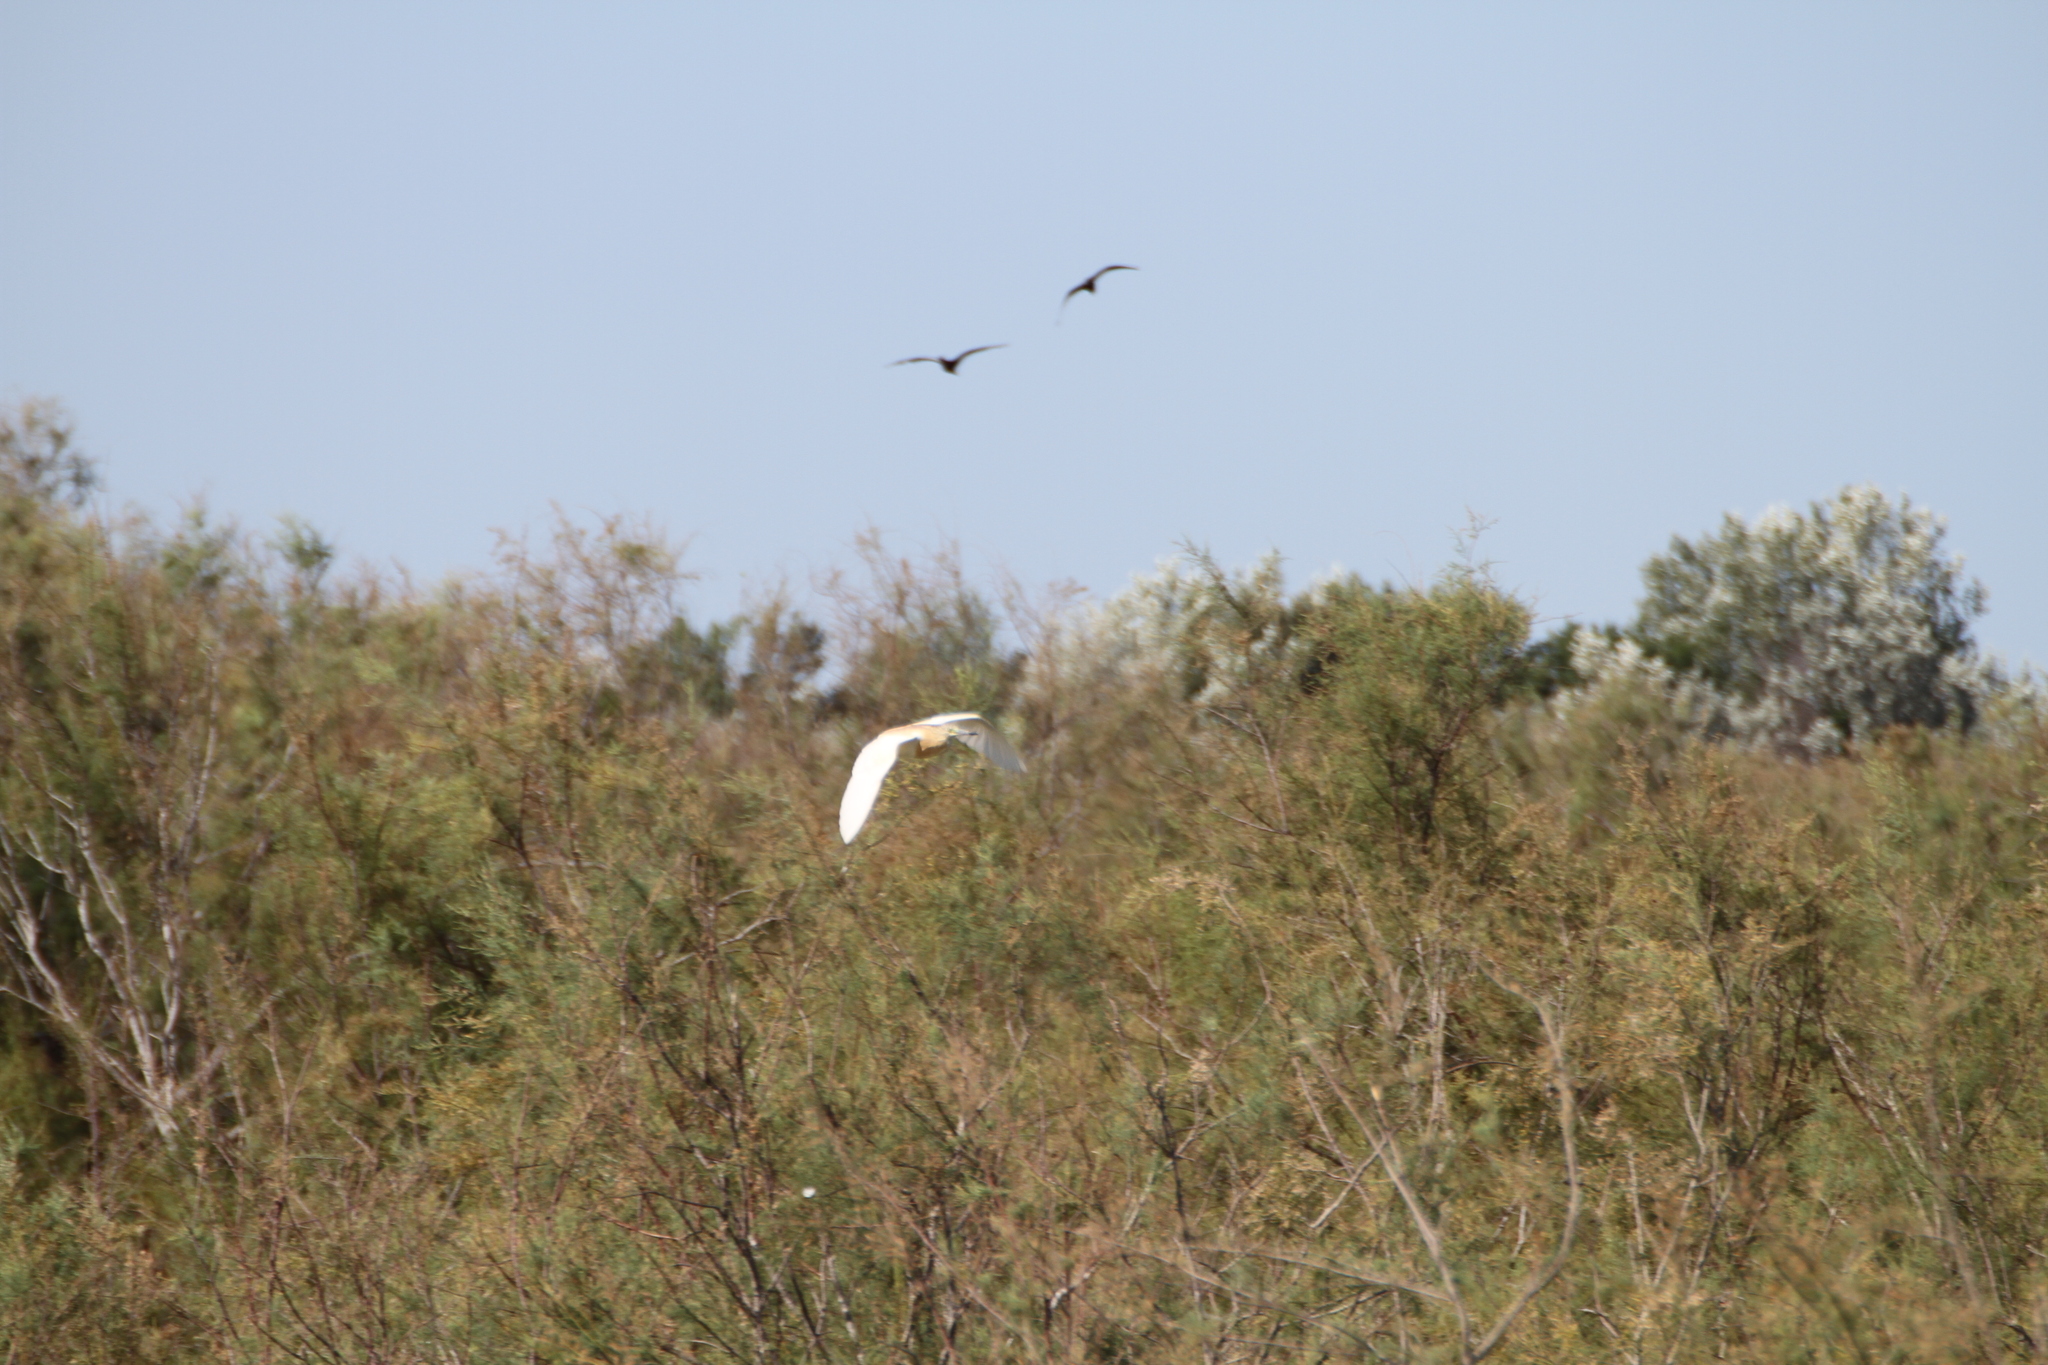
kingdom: Animalia
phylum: Chordata
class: Aves
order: Pelecaniformes
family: Ardeidae
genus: Ardeola
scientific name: Ardeola ralloides
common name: Squacco heron
